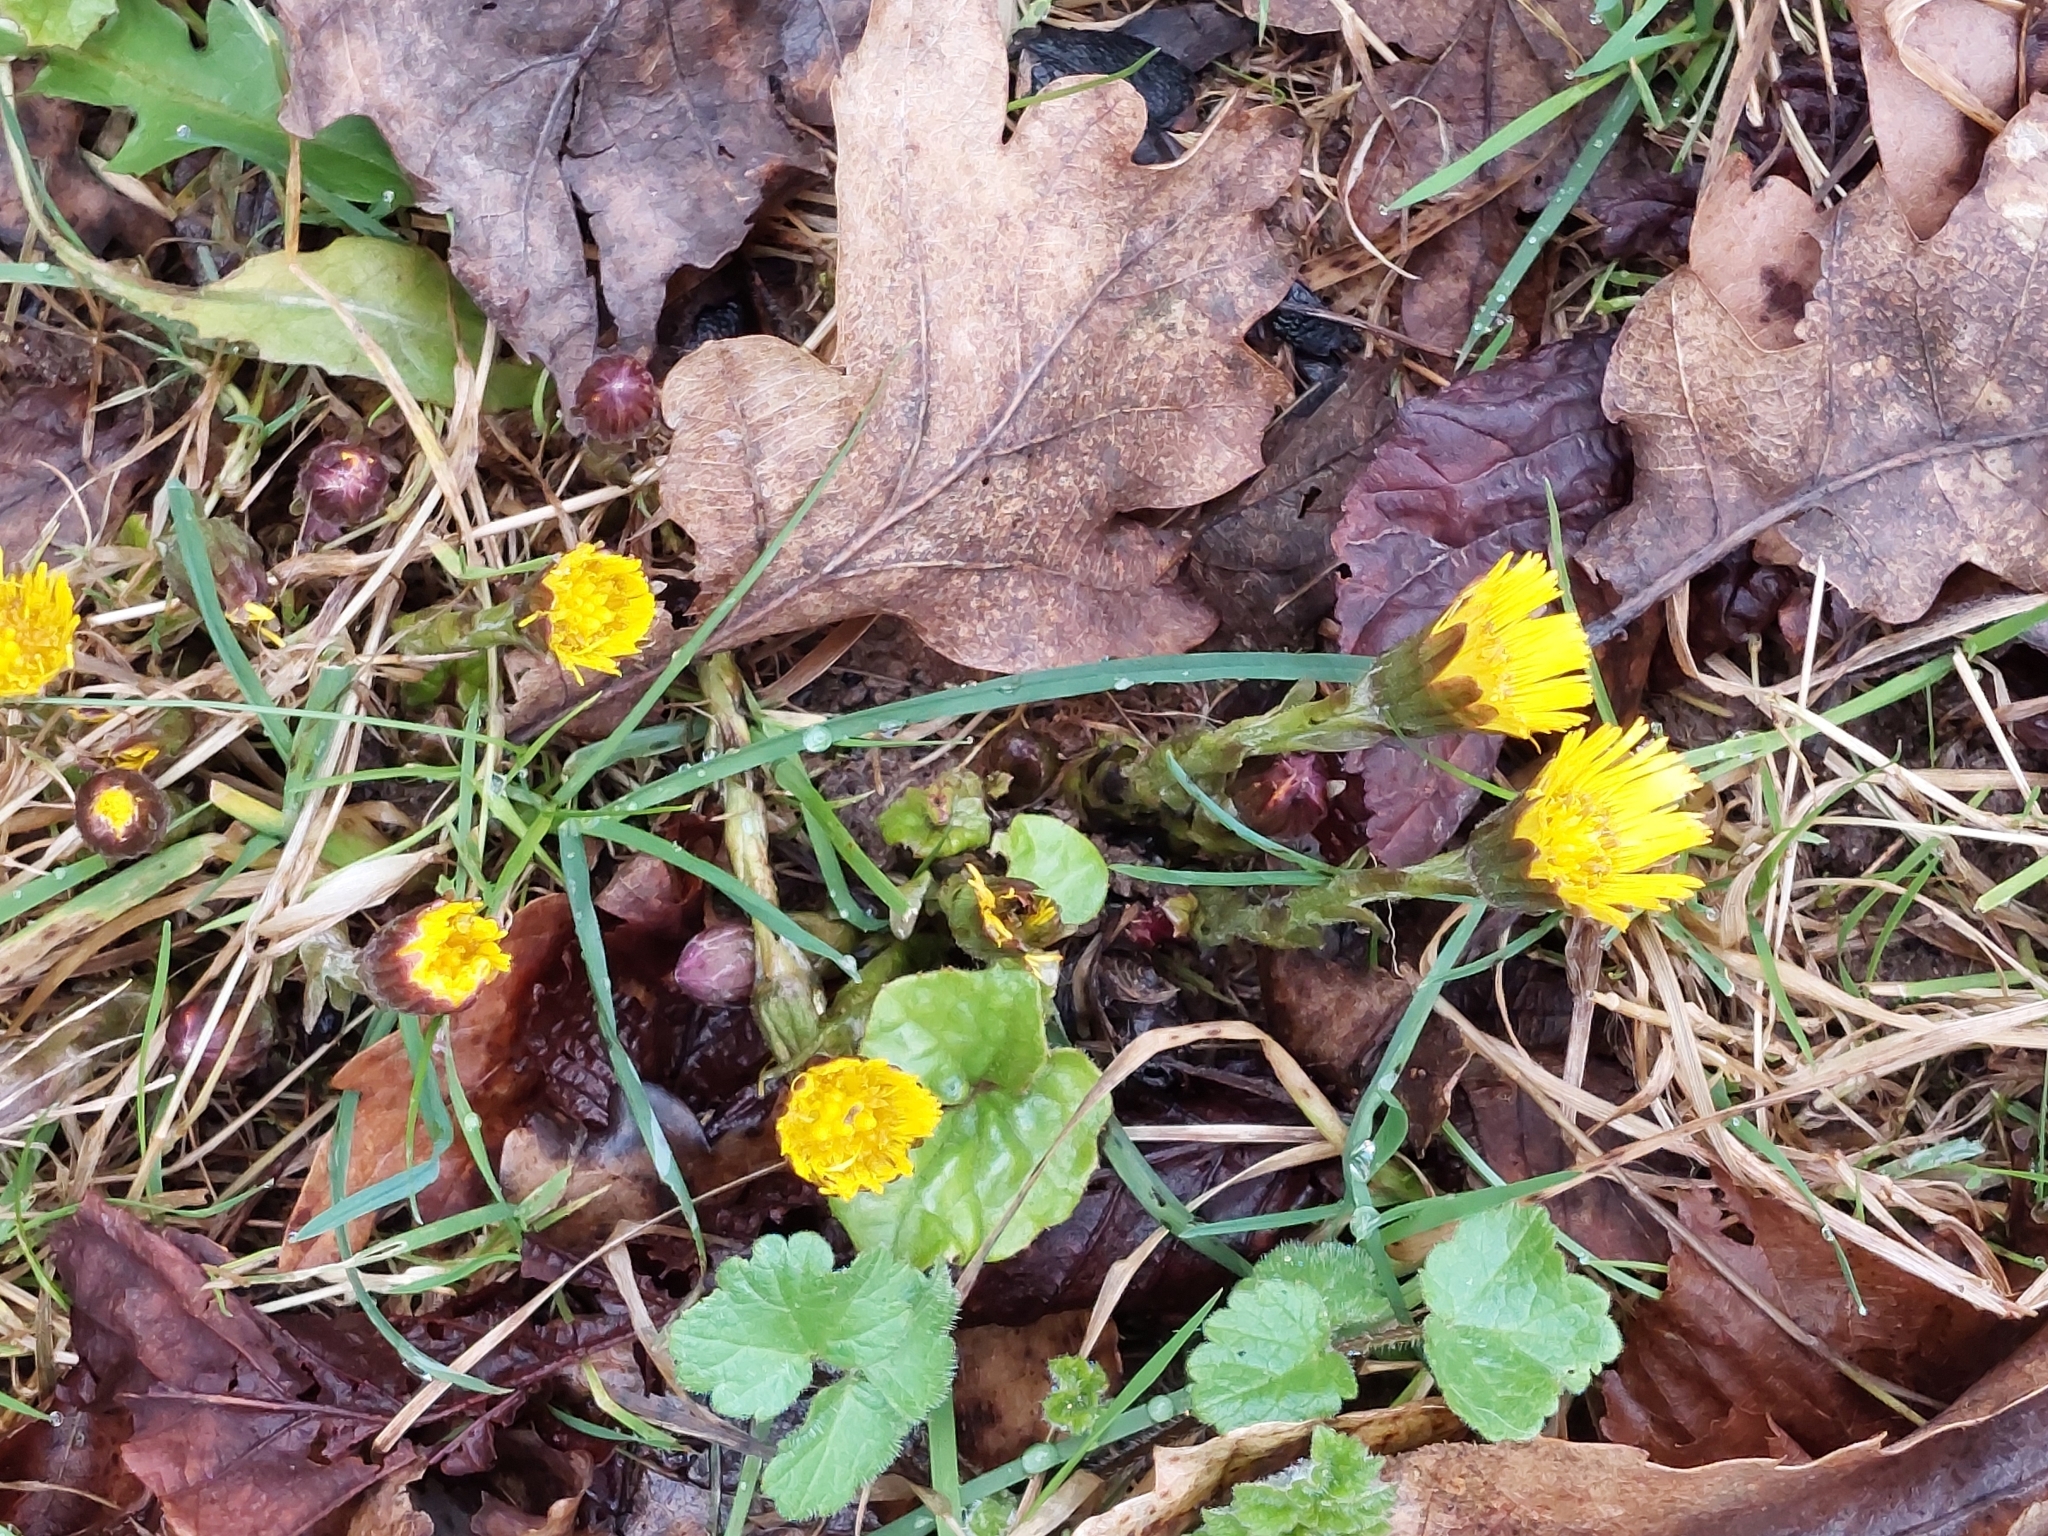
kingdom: Plantae
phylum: Tracheophyta
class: Magnoliopsida
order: Asterales
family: Asteraceae
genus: Tussilago
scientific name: Tussilago farfara
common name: Coltsfoot
